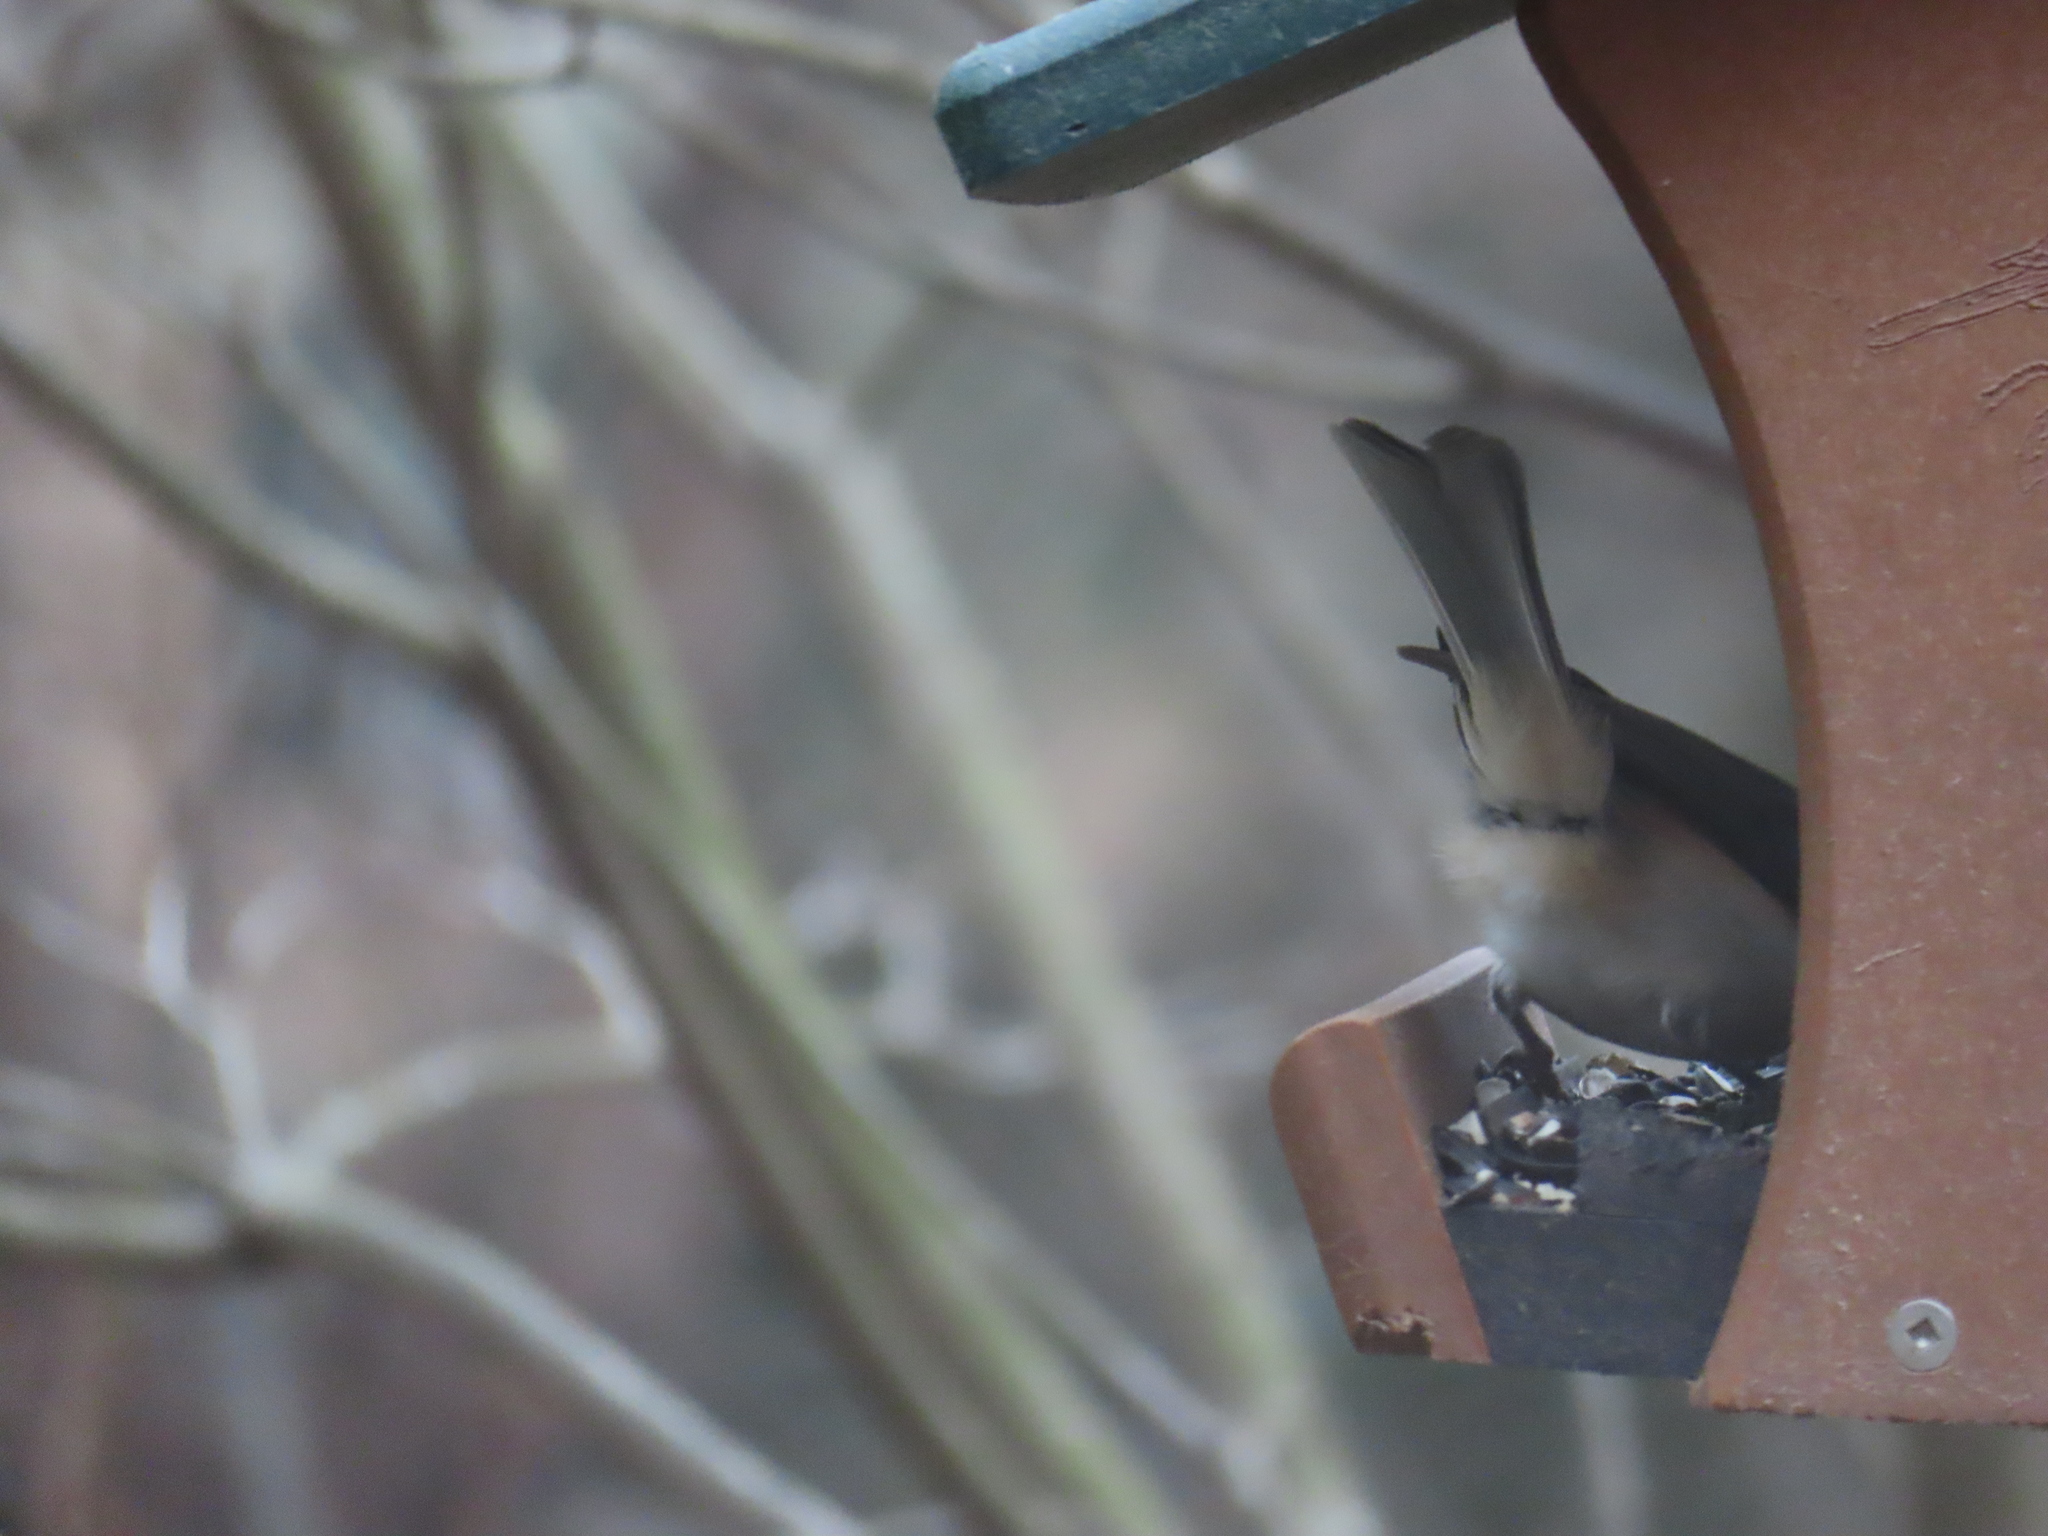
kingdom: Animalia
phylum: Chordata
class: Aves
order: Passeriformes
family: Paridae
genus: Baeolophus
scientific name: Baeolophus bicolor
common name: Tufted titmouse
